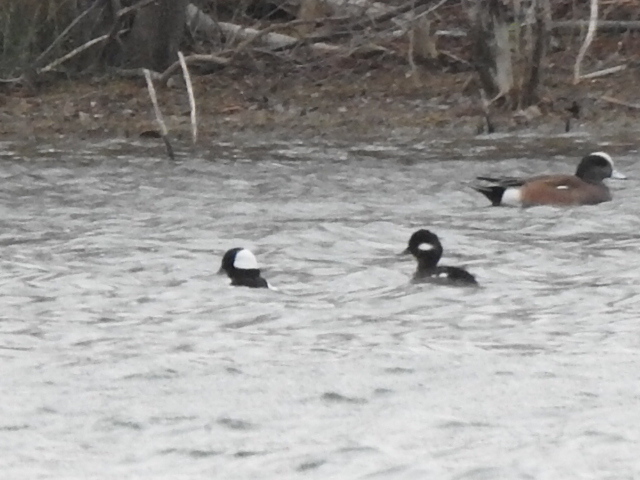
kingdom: Animalia
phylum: Chordata
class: Aves
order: Anseriformes
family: Anatidae
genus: Bucephala
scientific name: Bucephala albeola
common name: Bufflehead
